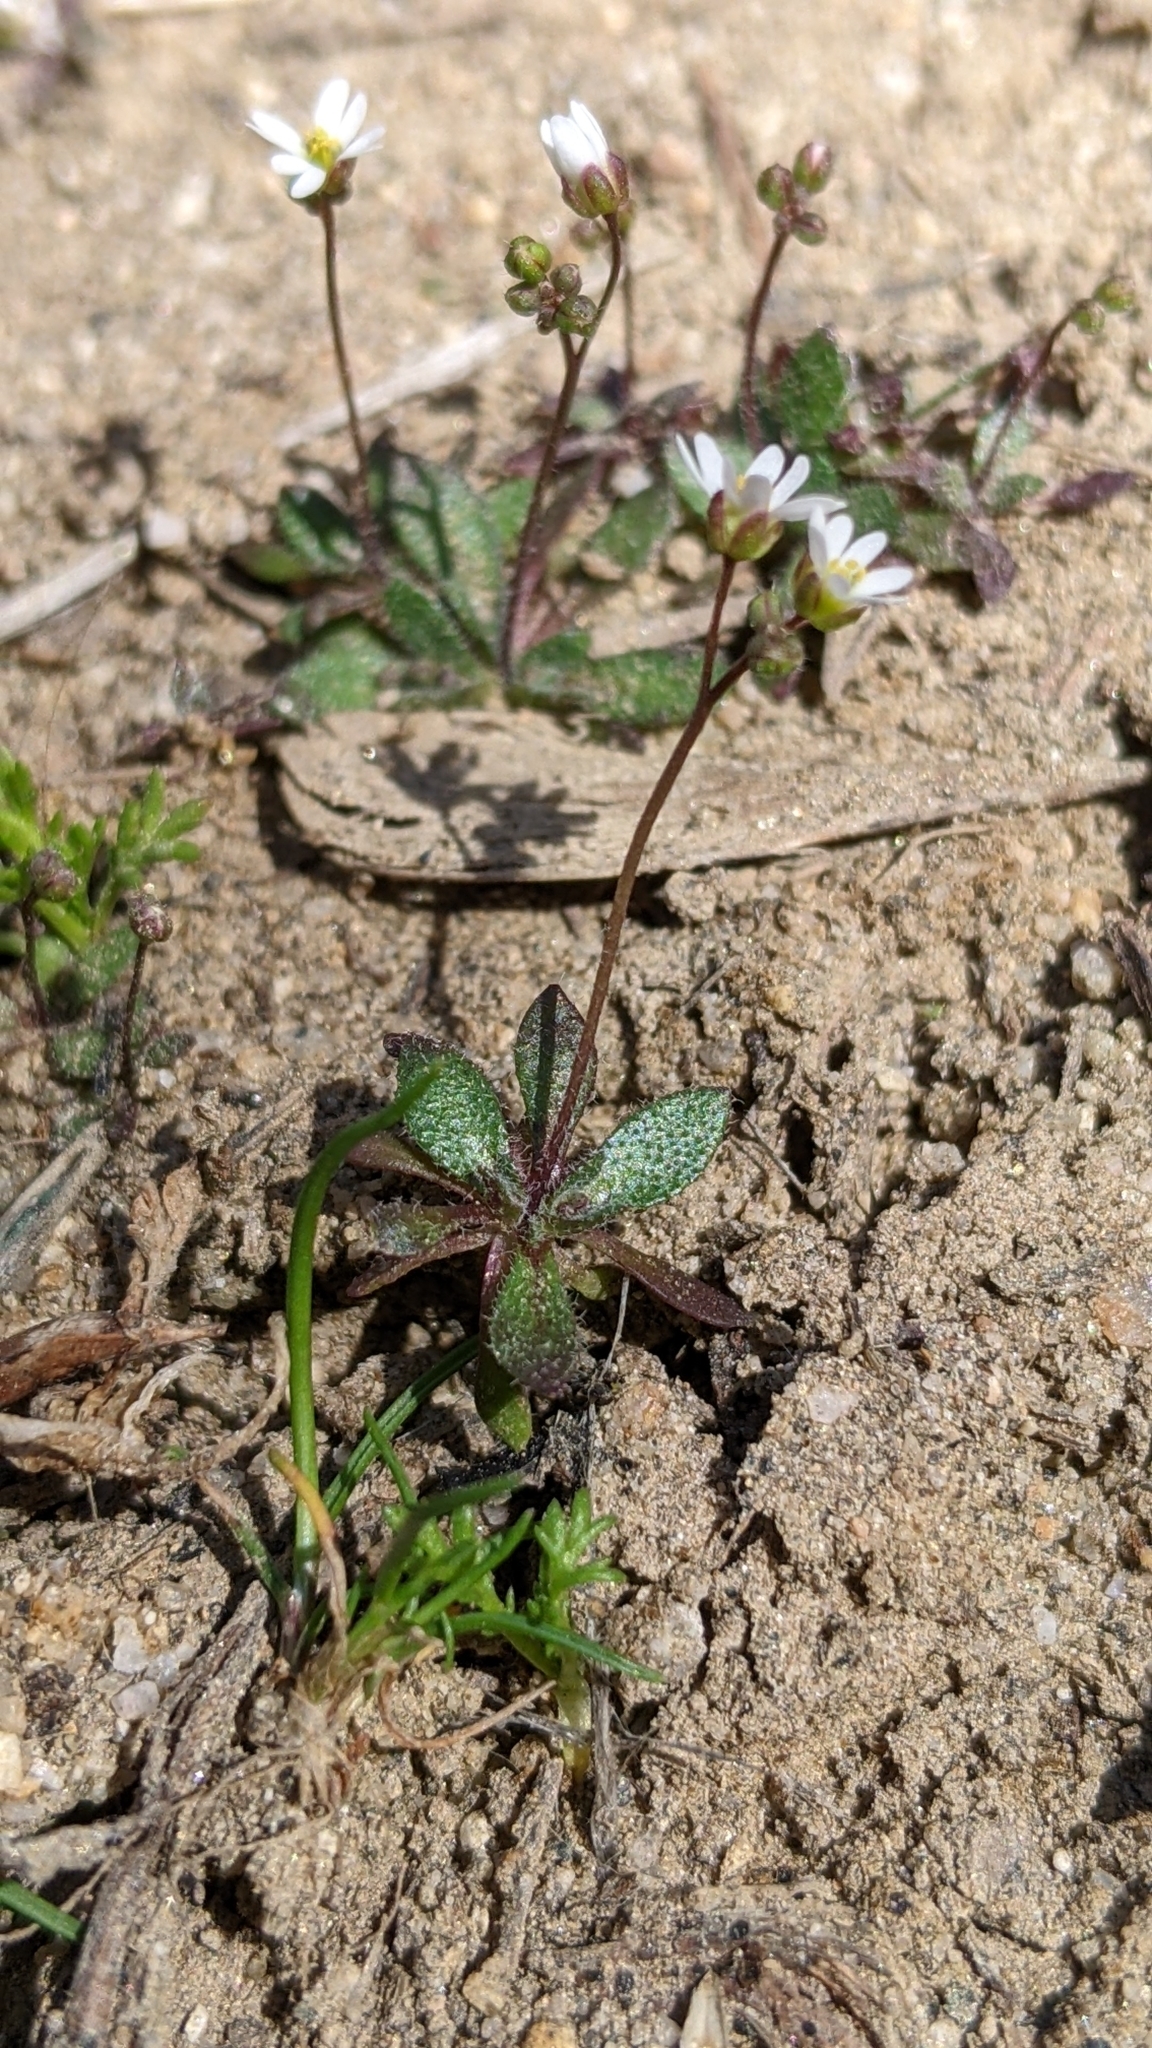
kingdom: Plantae
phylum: Tracheophyta
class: Magnoliopsida
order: Brassicales
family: Brassicaceae
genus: Draba
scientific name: Draba verna
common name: Spring draba
